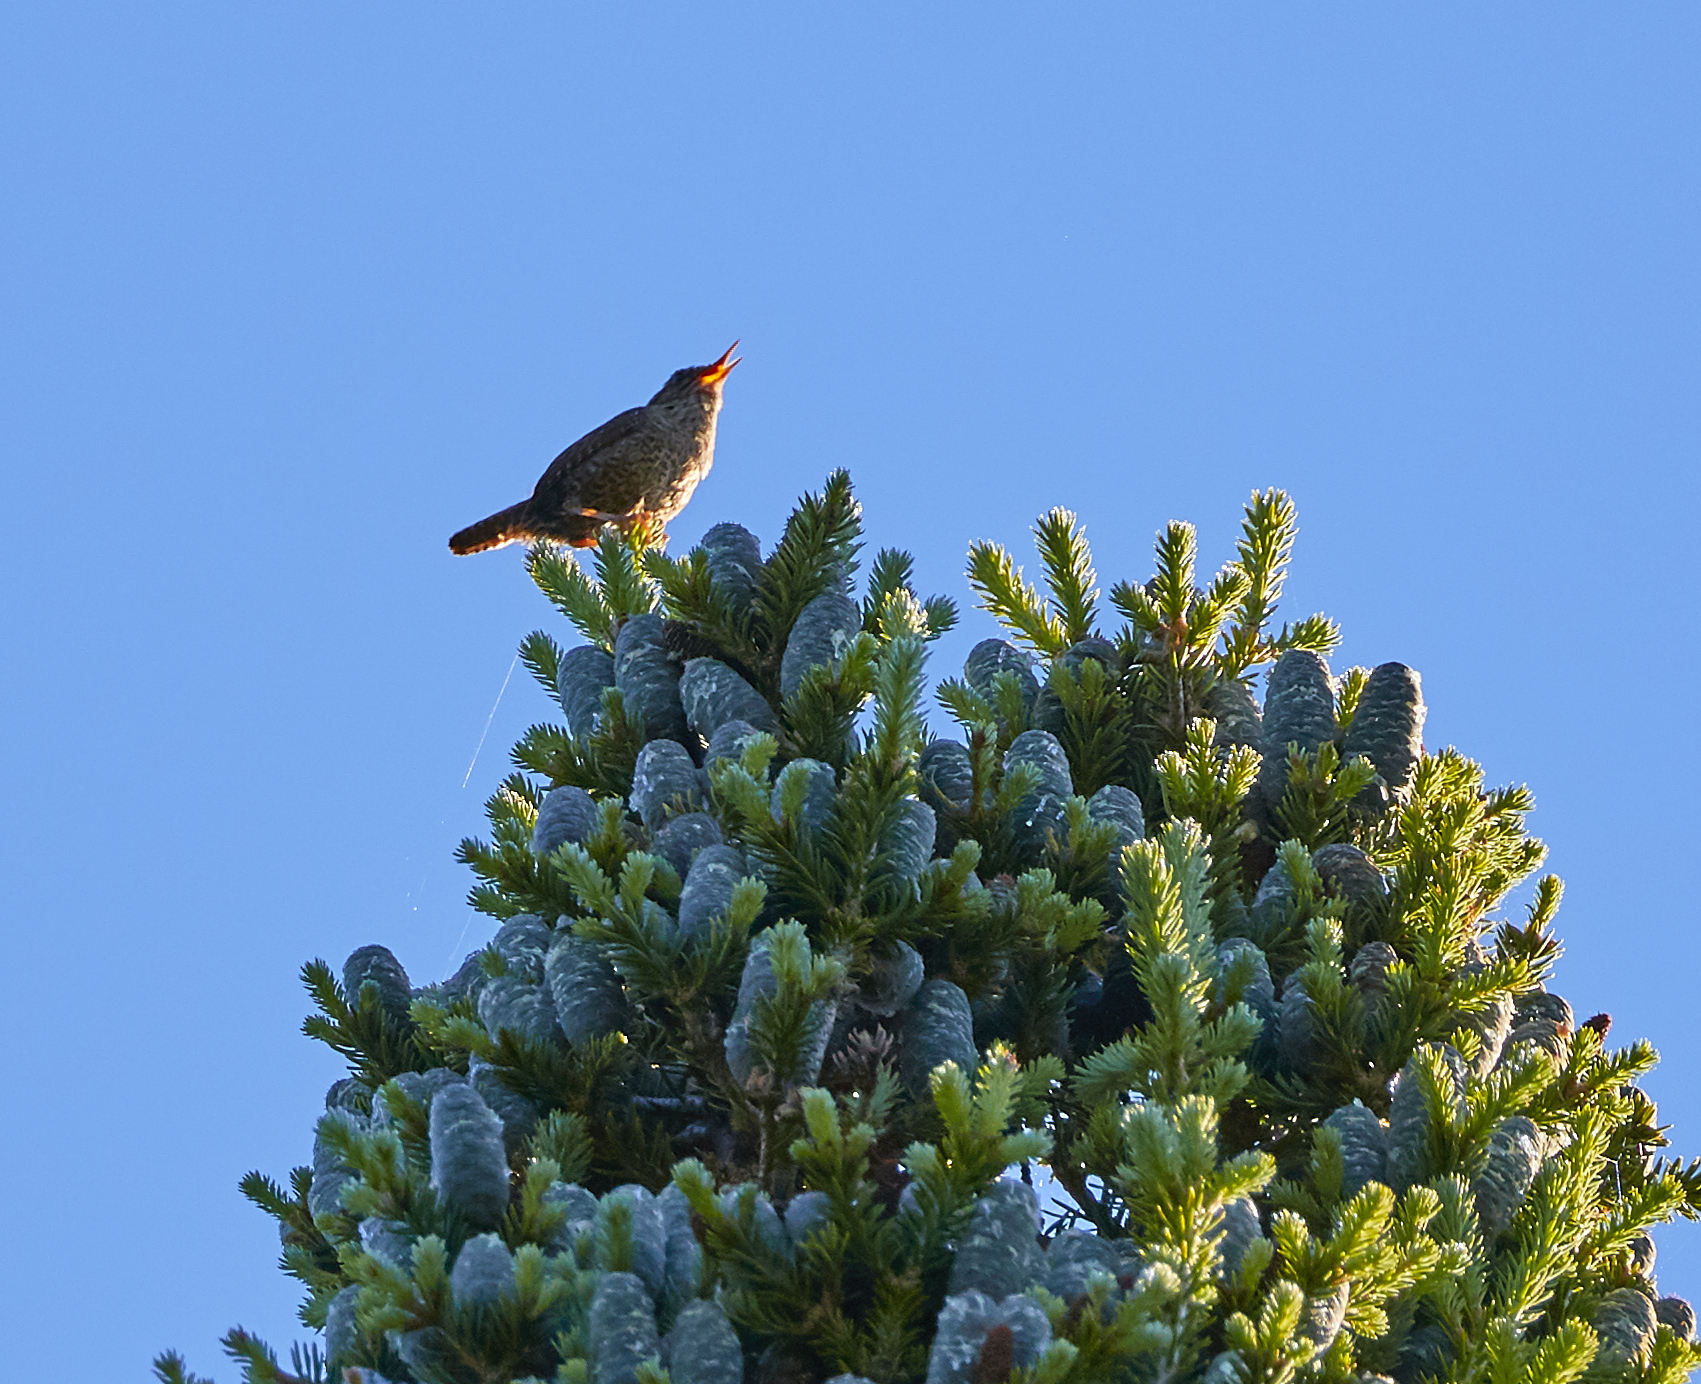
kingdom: Animalia
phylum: Chordata
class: Aves
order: Passeriformes
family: Troglodytidae
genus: Troglodytes
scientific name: Troglodytes hiemalis
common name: Winter wren
